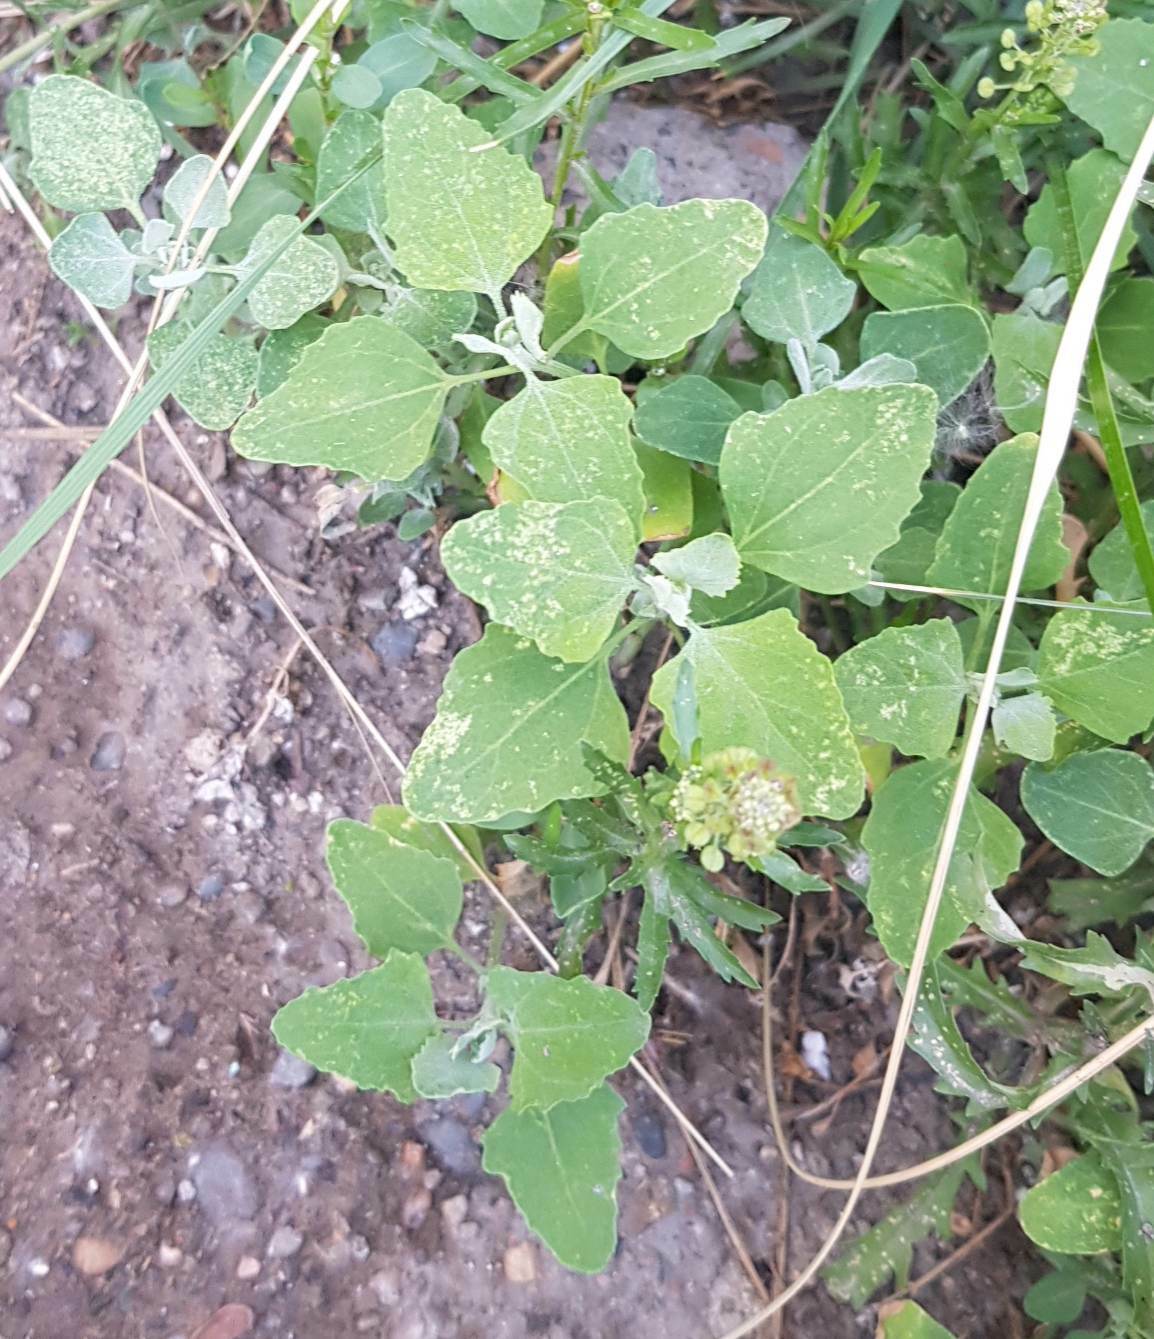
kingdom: Plantae
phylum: Tracheophyta
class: Magnoliopsida
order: Caryophyllales
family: Amaranthaceae
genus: Chenopodium
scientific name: Chenopodium album
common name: Fat-hen
